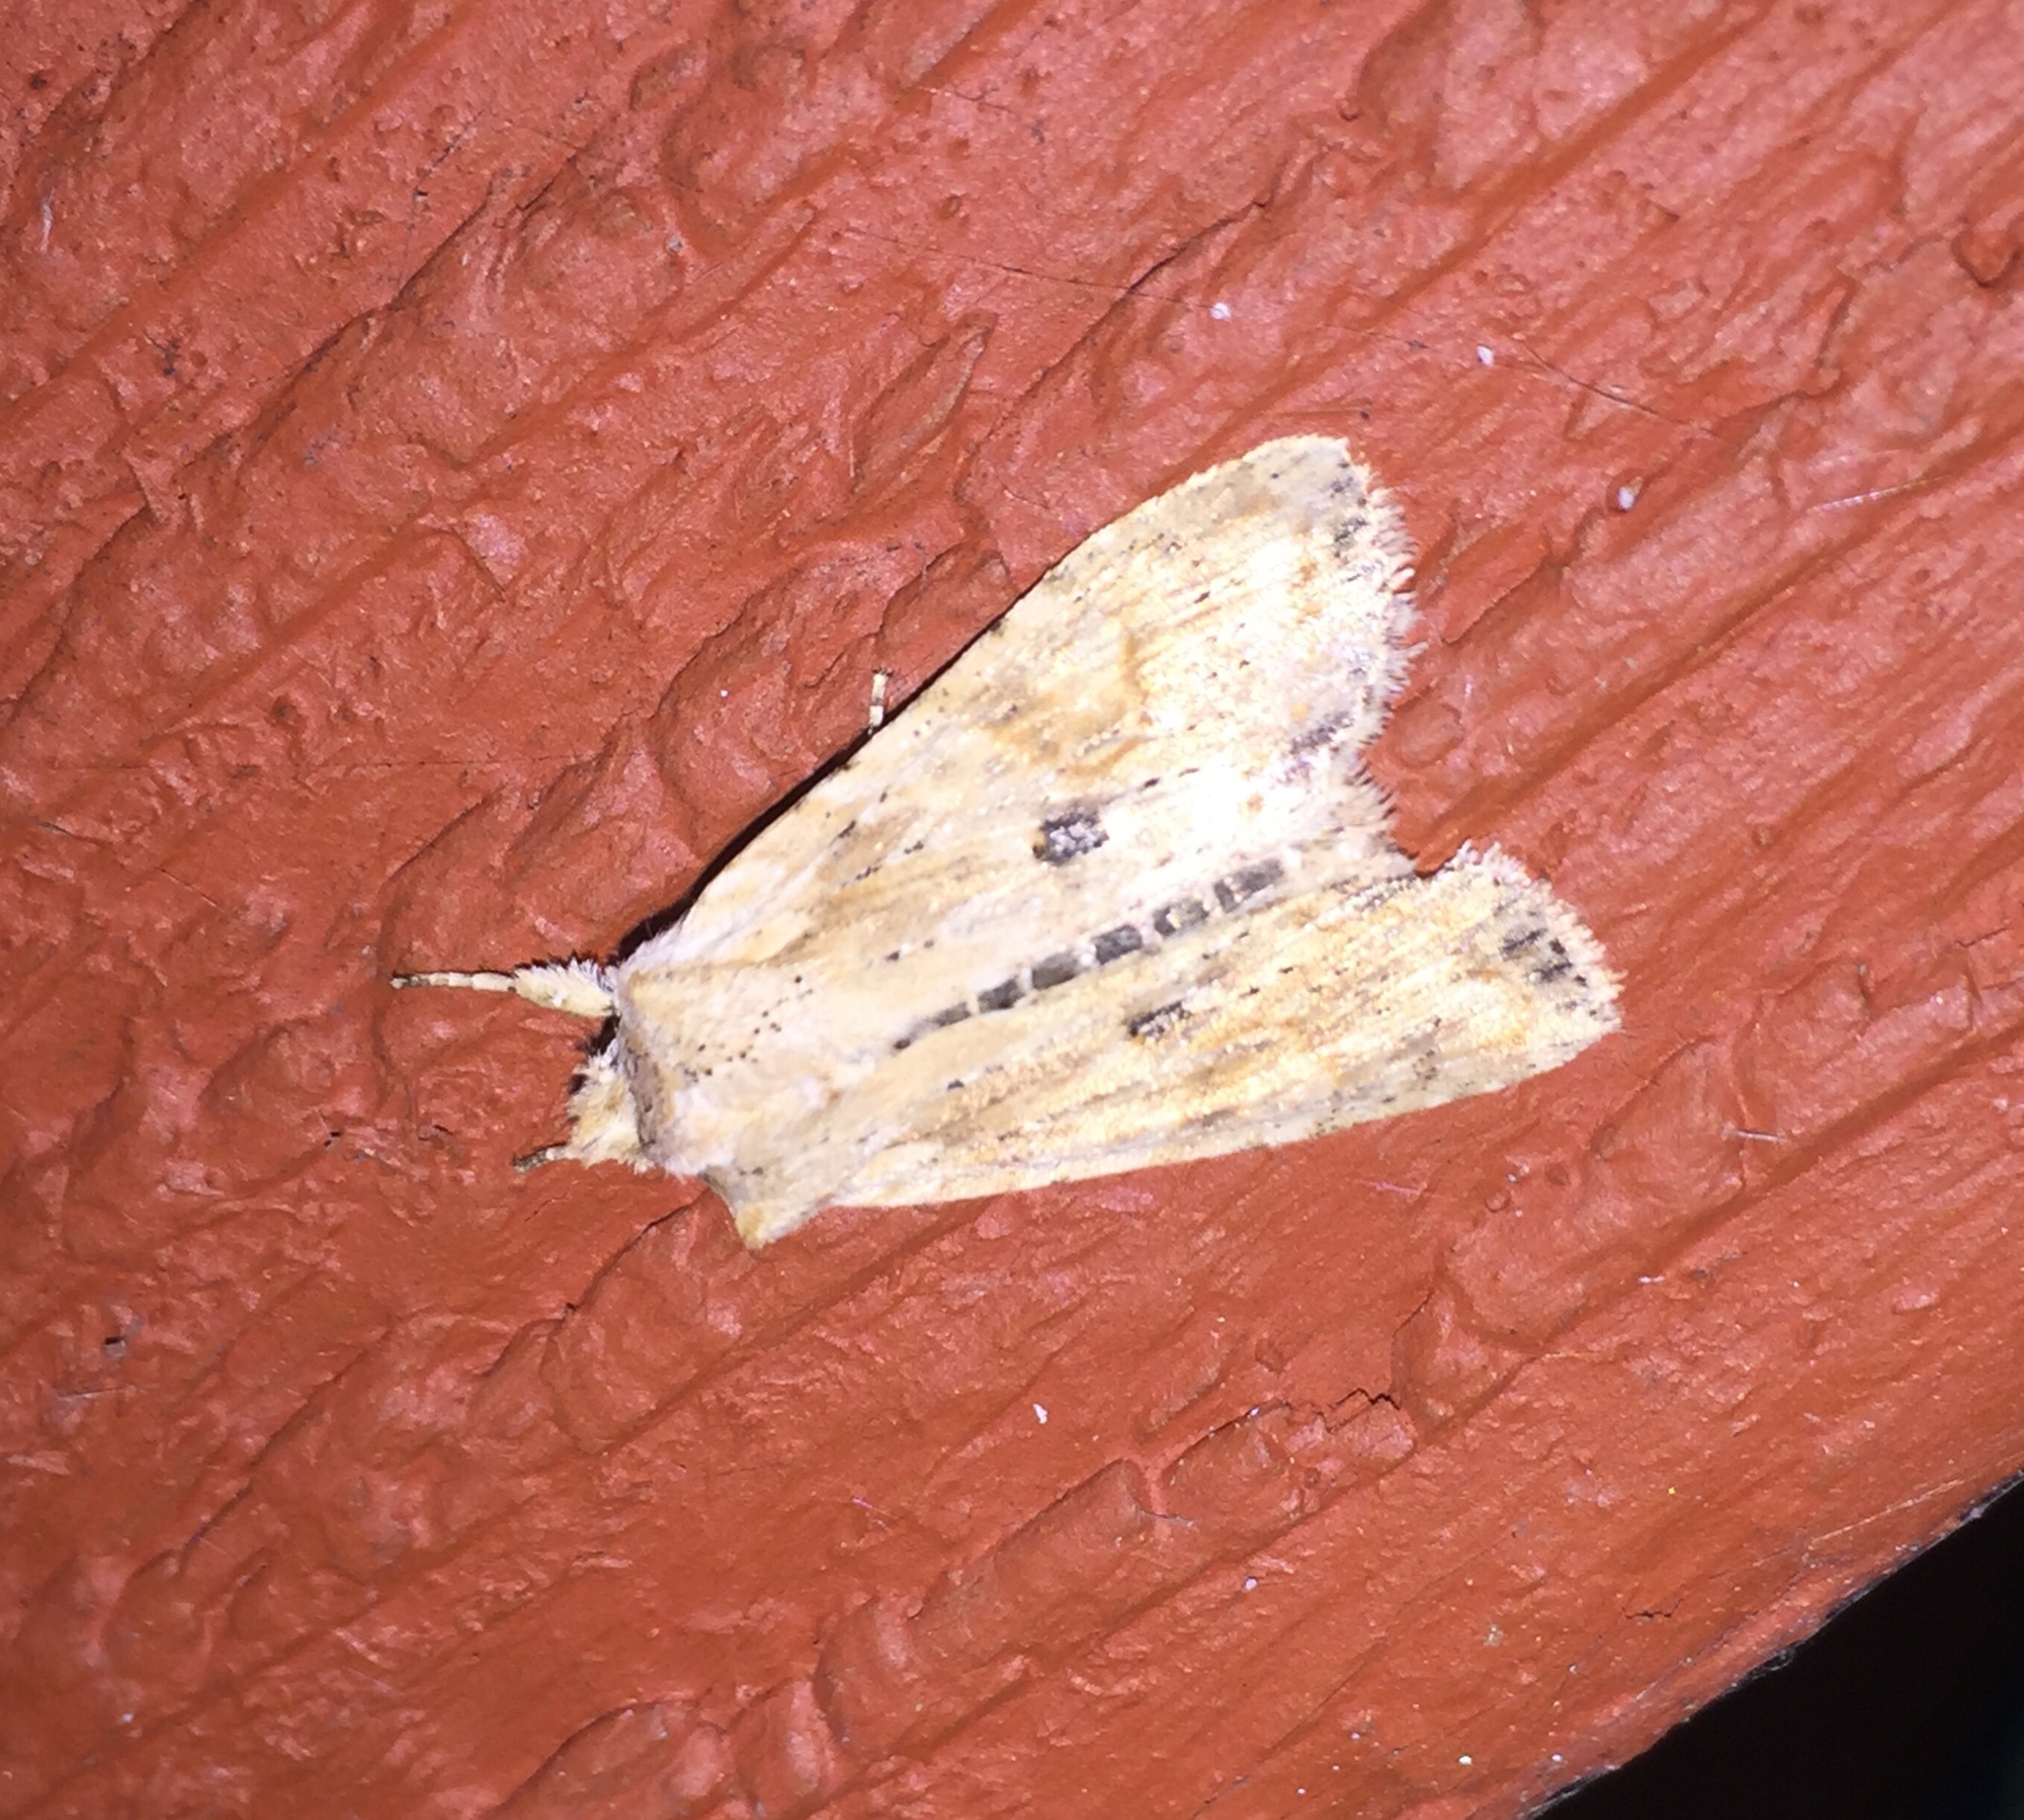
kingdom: Animalia
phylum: Arthropoda
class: Insecta
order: Lepidoptera
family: Noctuidae
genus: Lithophane
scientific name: Lithophane innominata
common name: Nameless pinion moth
